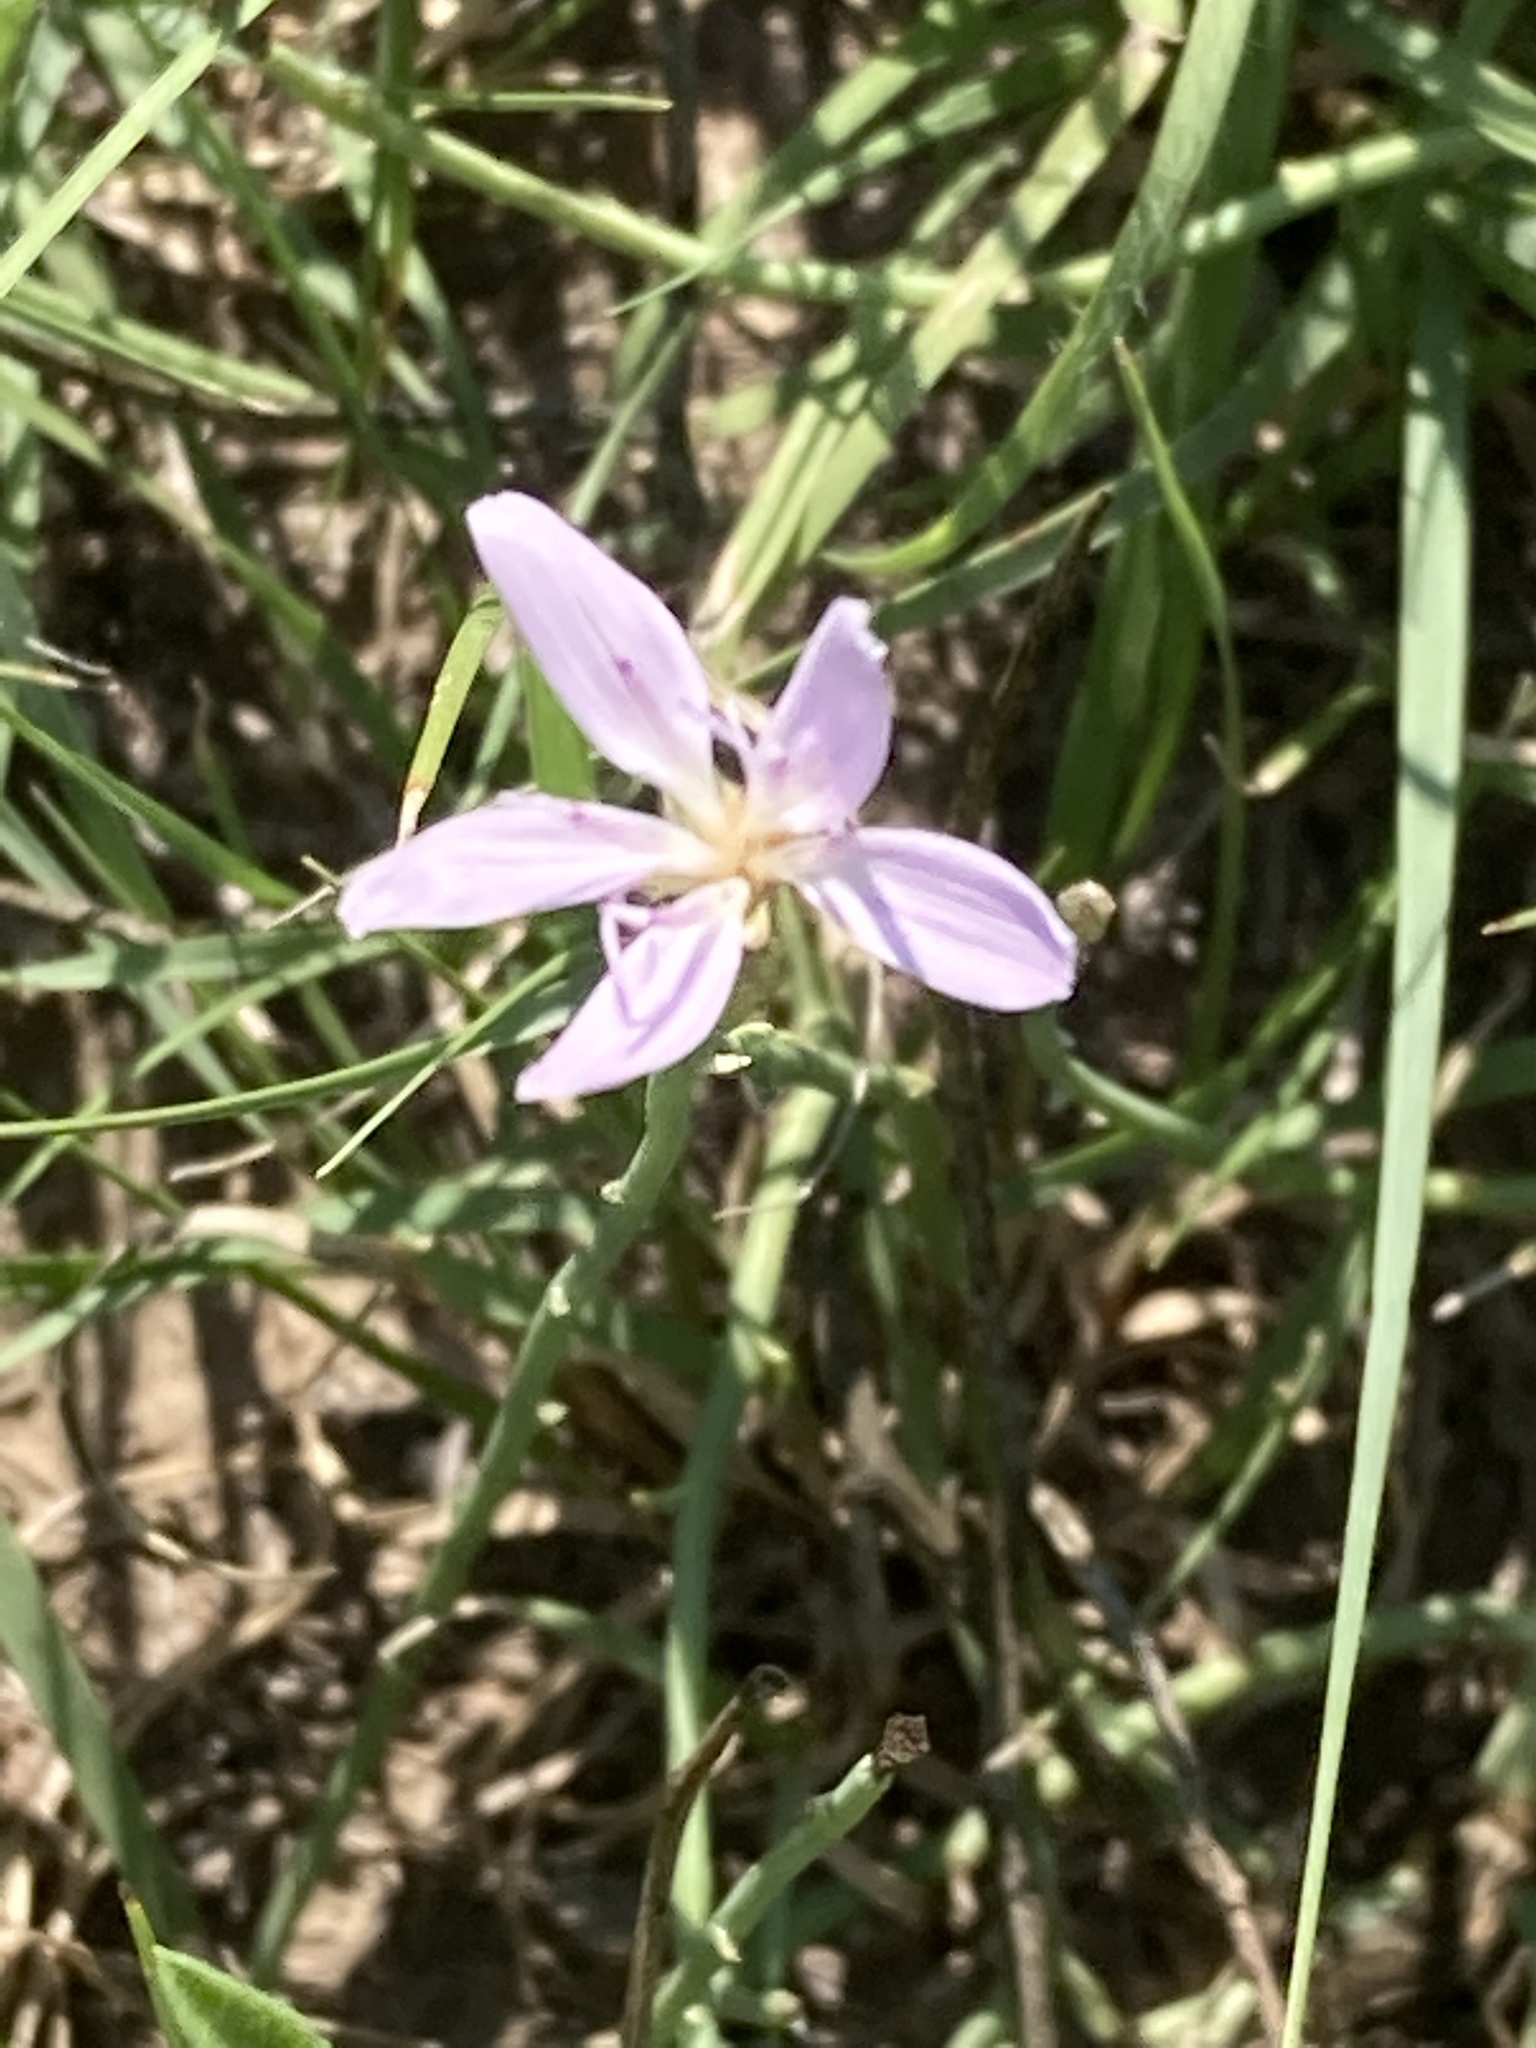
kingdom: Plantae
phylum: Tracheophyta
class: Magnoliopsida
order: Asterales
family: Asteraceae
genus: Lygodesmia
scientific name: Lygodesmia juncea
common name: Common skeletonweed
